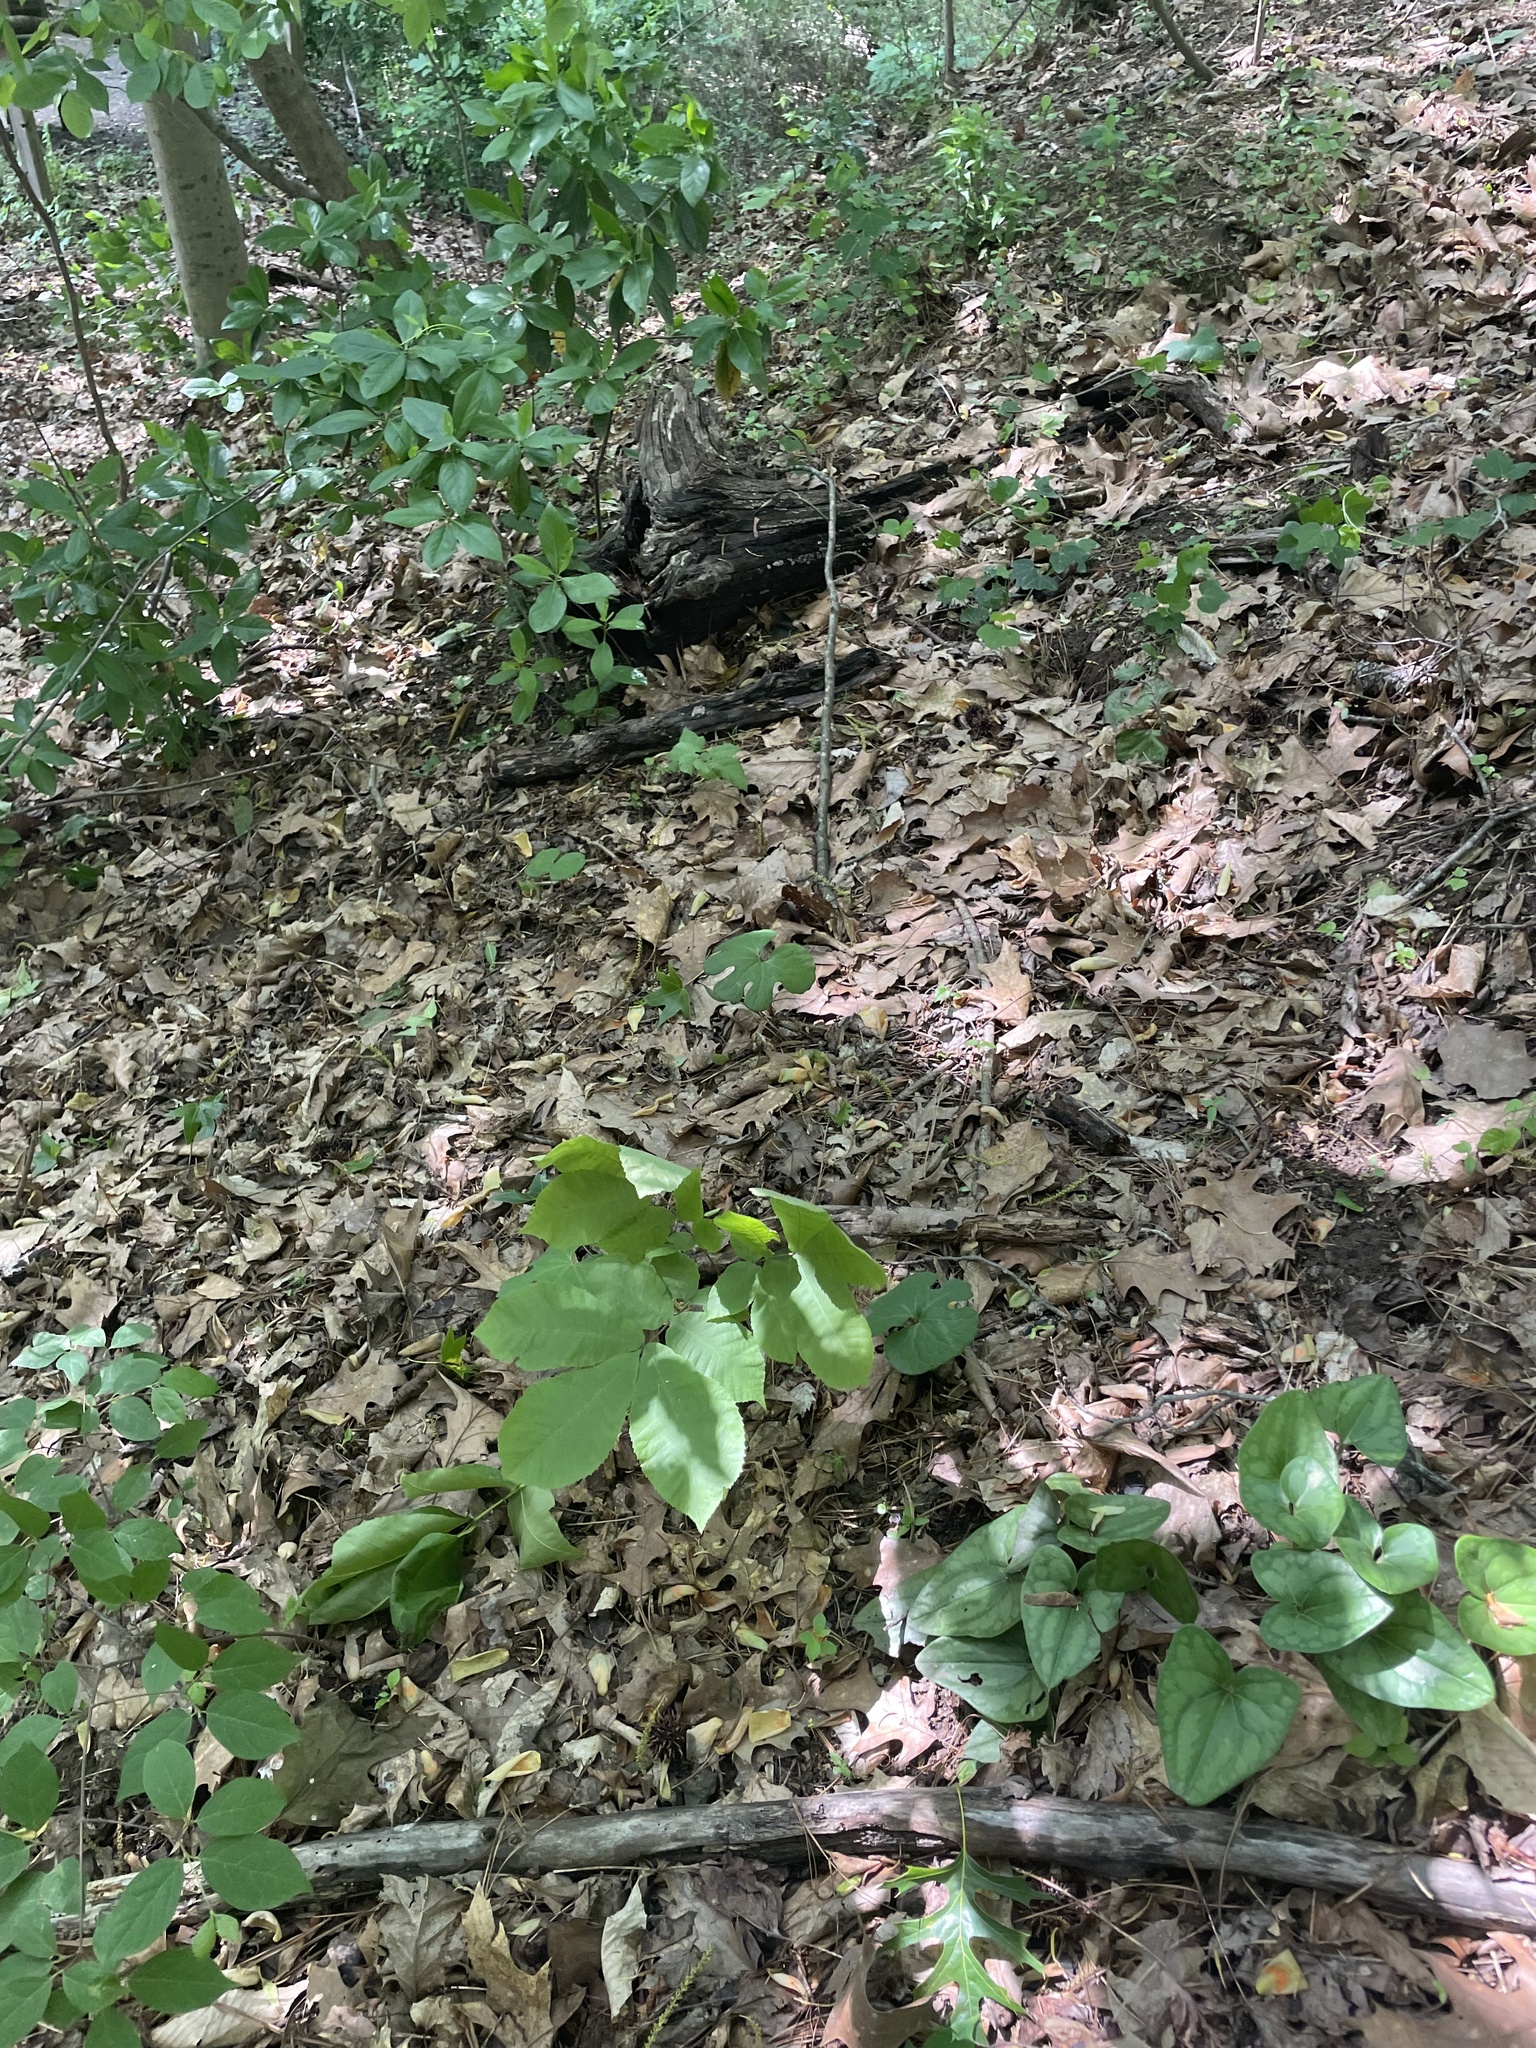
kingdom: Plantae
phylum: Tracheophyta
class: Magnoliopsida
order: Ranunculales
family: Papaveraceae
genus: Sanguinaria
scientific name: Sanguinaria canadensis
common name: Bloodroot
